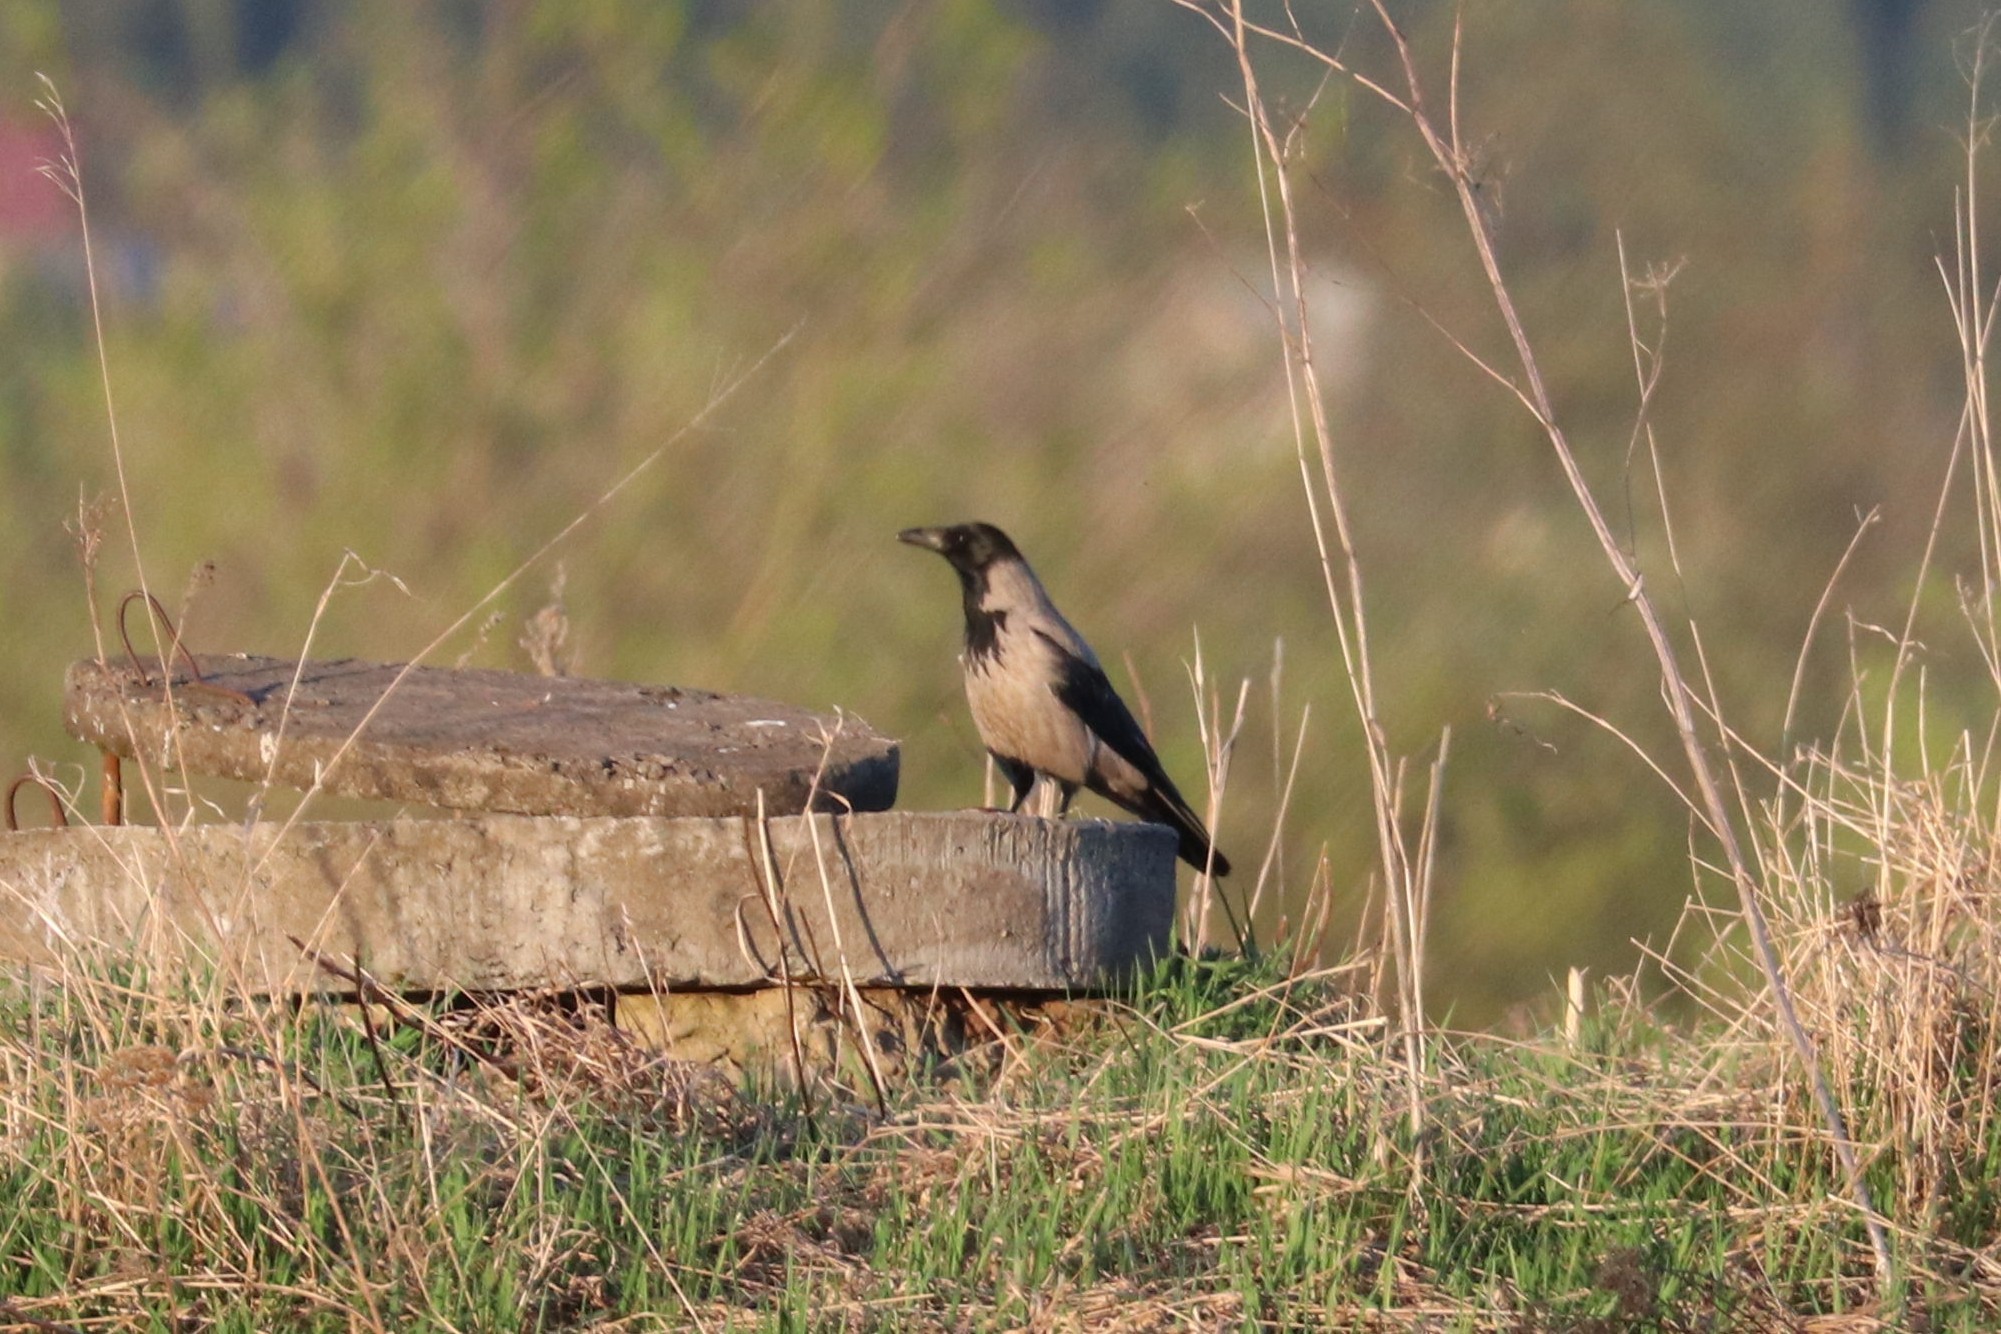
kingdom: Animalia
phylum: Chordata
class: Aves
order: Passeriformes
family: Corvidae
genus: Corvus
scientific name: Corvus cornix
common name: Hooded crow
